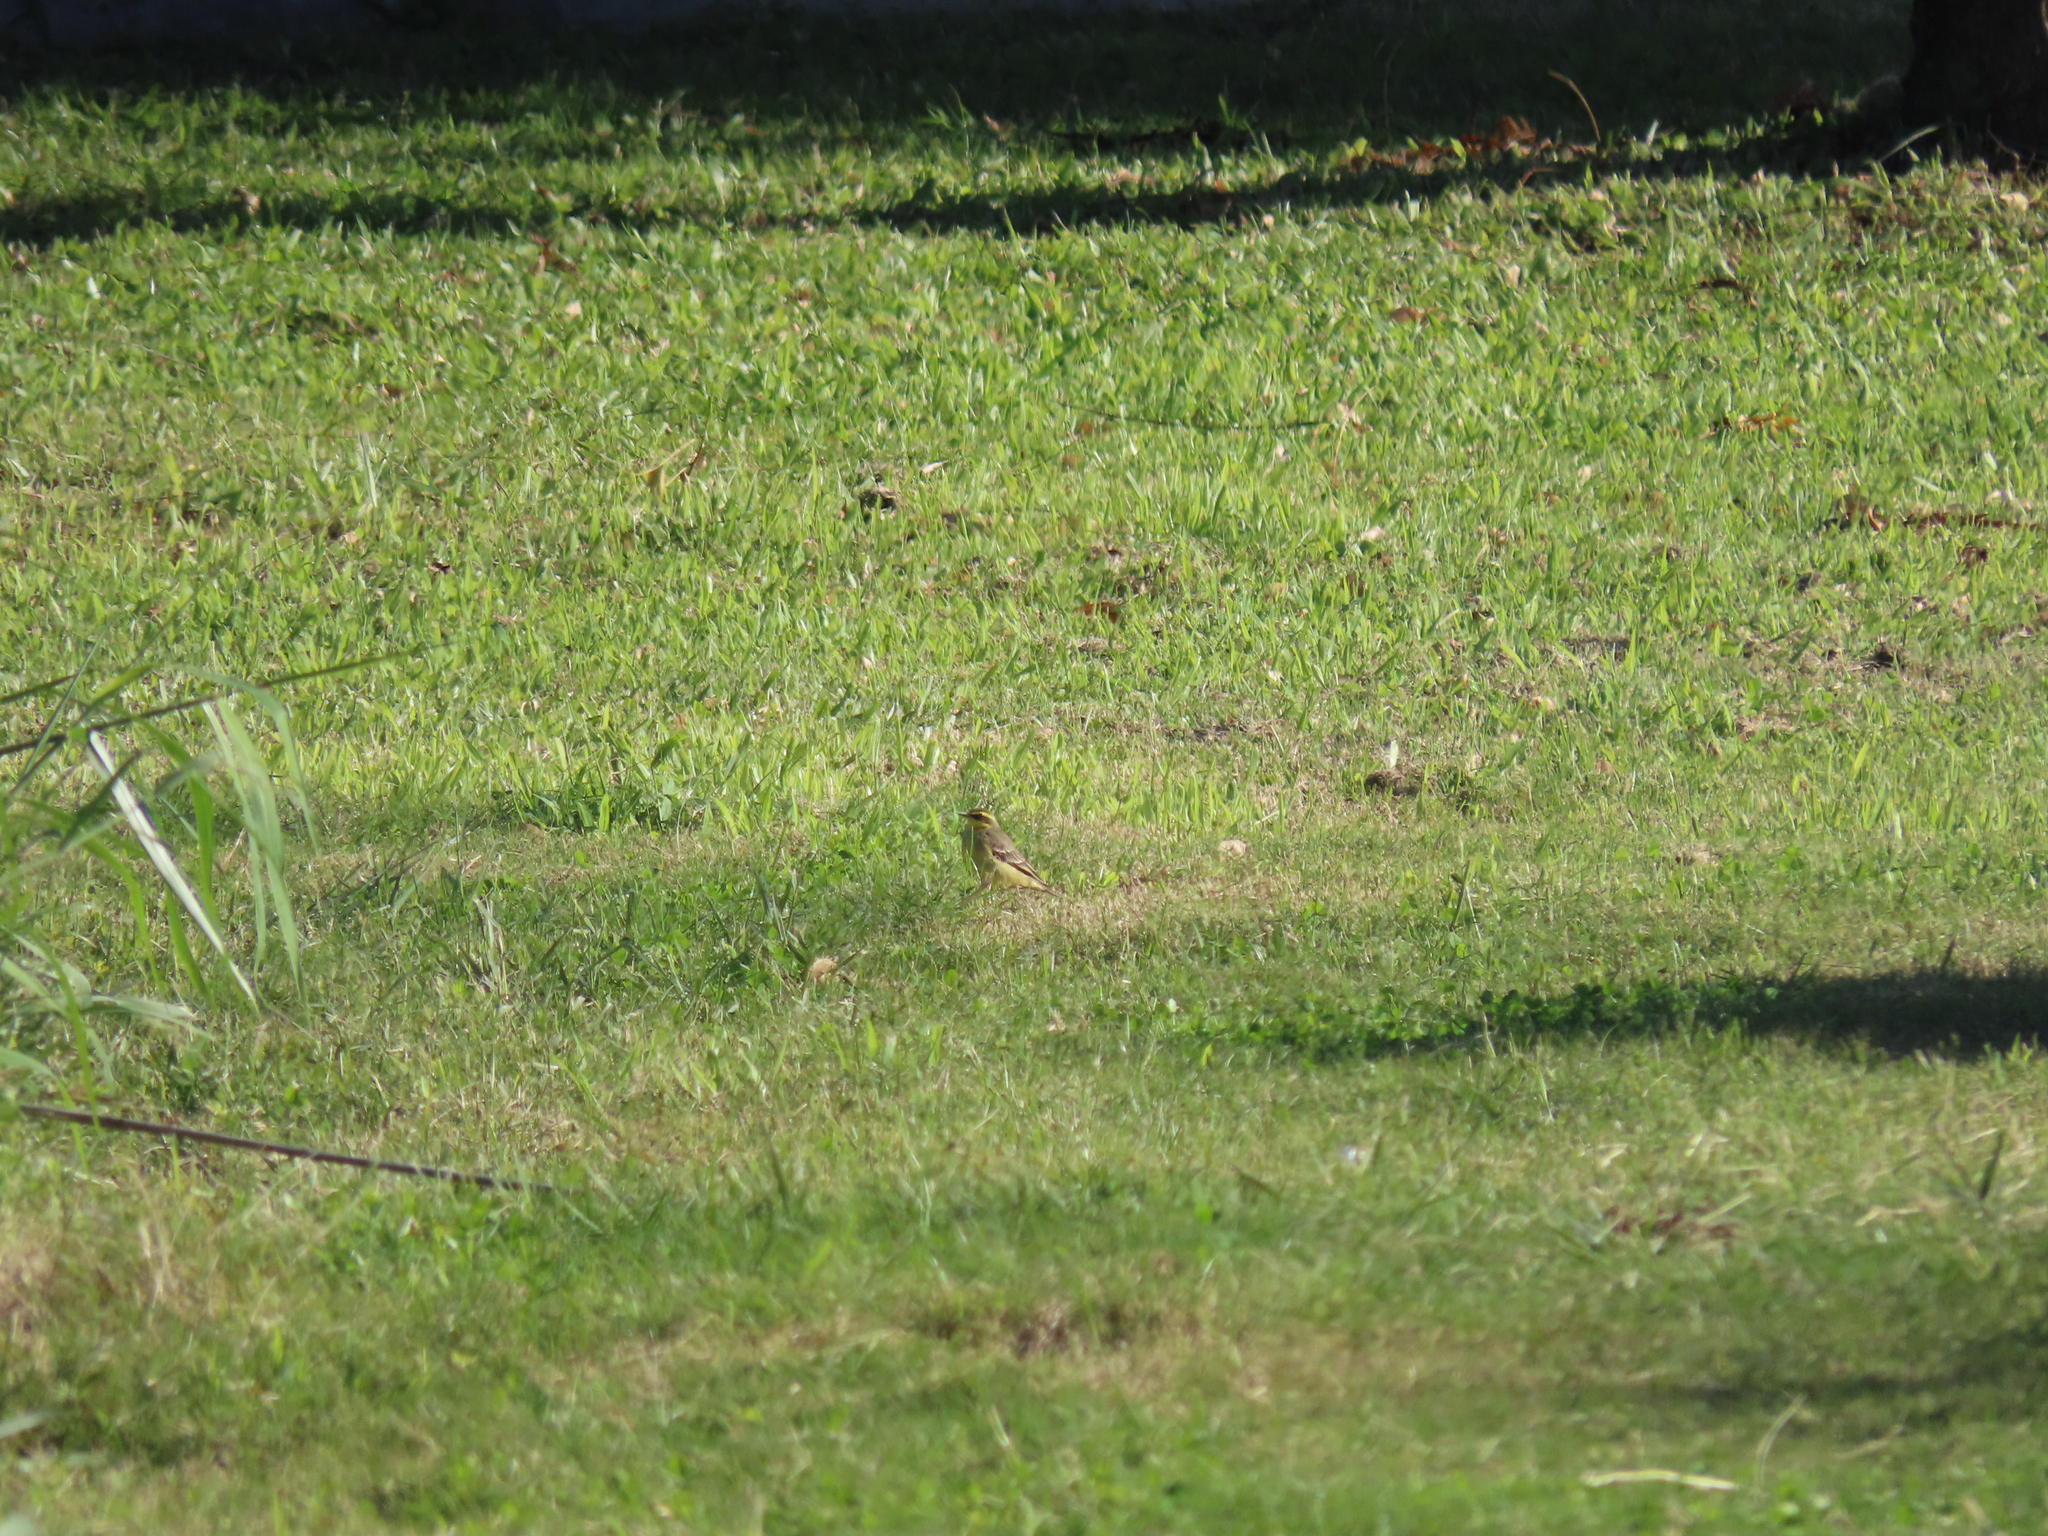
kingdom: Animalia
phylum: Chordata
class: Aves
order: Passeriformes
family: Motacillidae
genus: Motacilla
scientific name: Motacilla tschutschensis
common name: Eastern yellow wagtail
